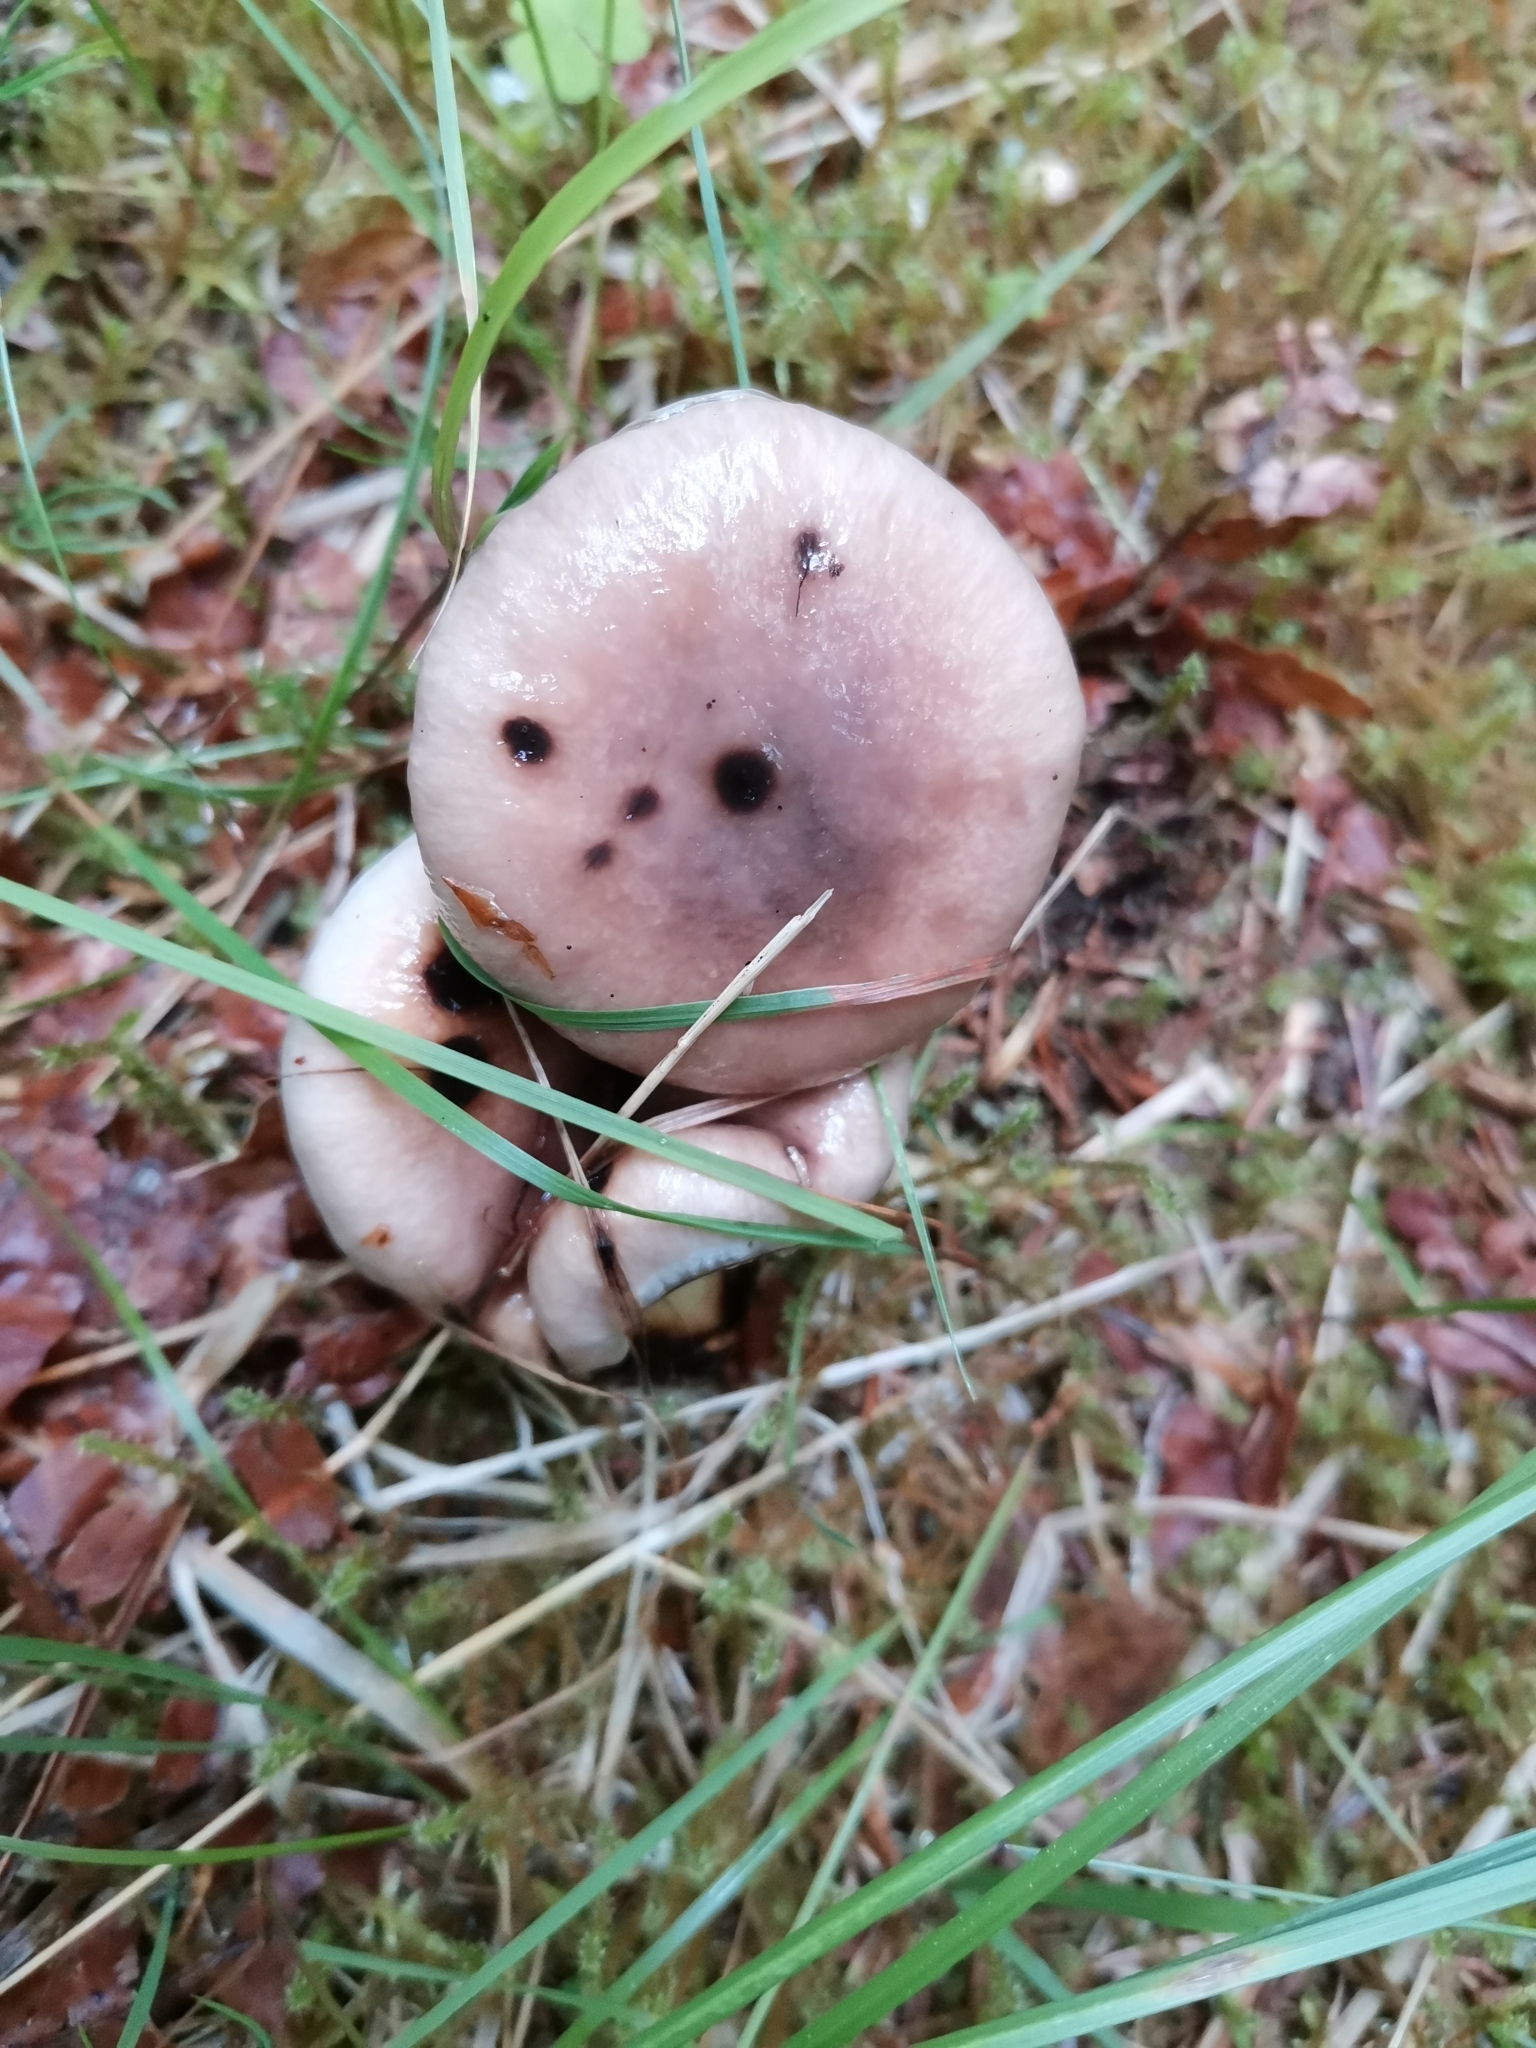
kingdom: Fungi
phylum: Basidiomycota
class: Agaricomycetes
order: Boletales
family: Gomphidiaceae
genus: Gomphidius
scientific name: Gomphidius glutinosus
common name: Slimy spike
